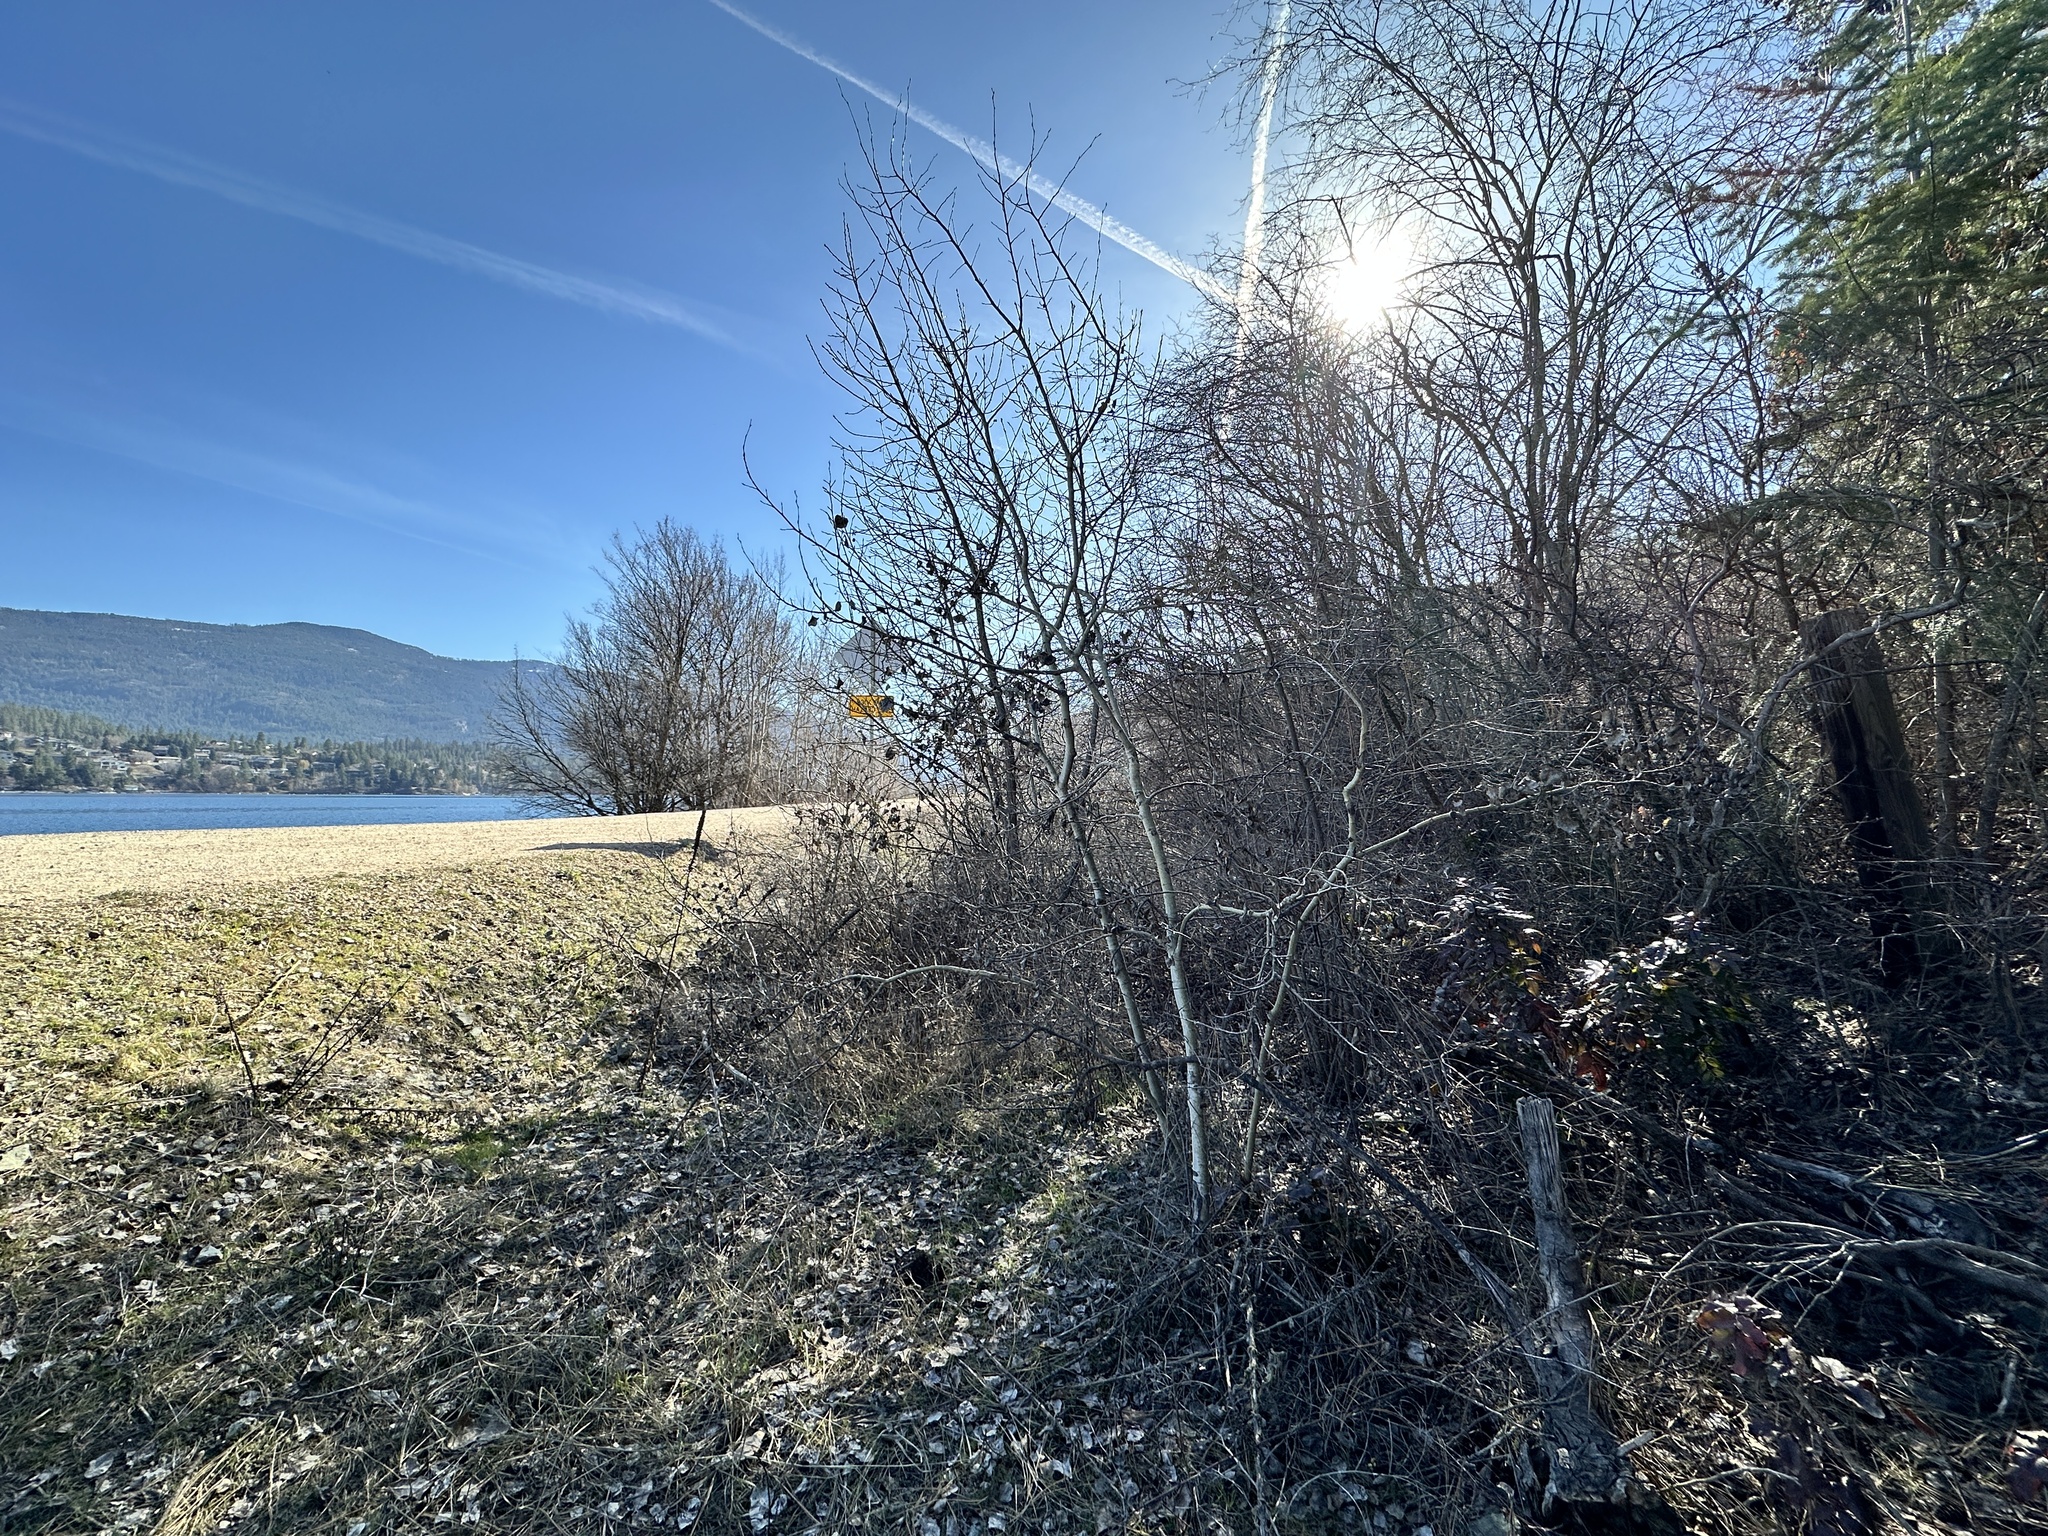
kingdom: Plantae
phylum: Tracheophyta
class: Magnoliopsida
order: Malpighiales
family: Salicaceae
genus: Populus
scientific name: Populus tremuloides
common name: Quaking aspen
